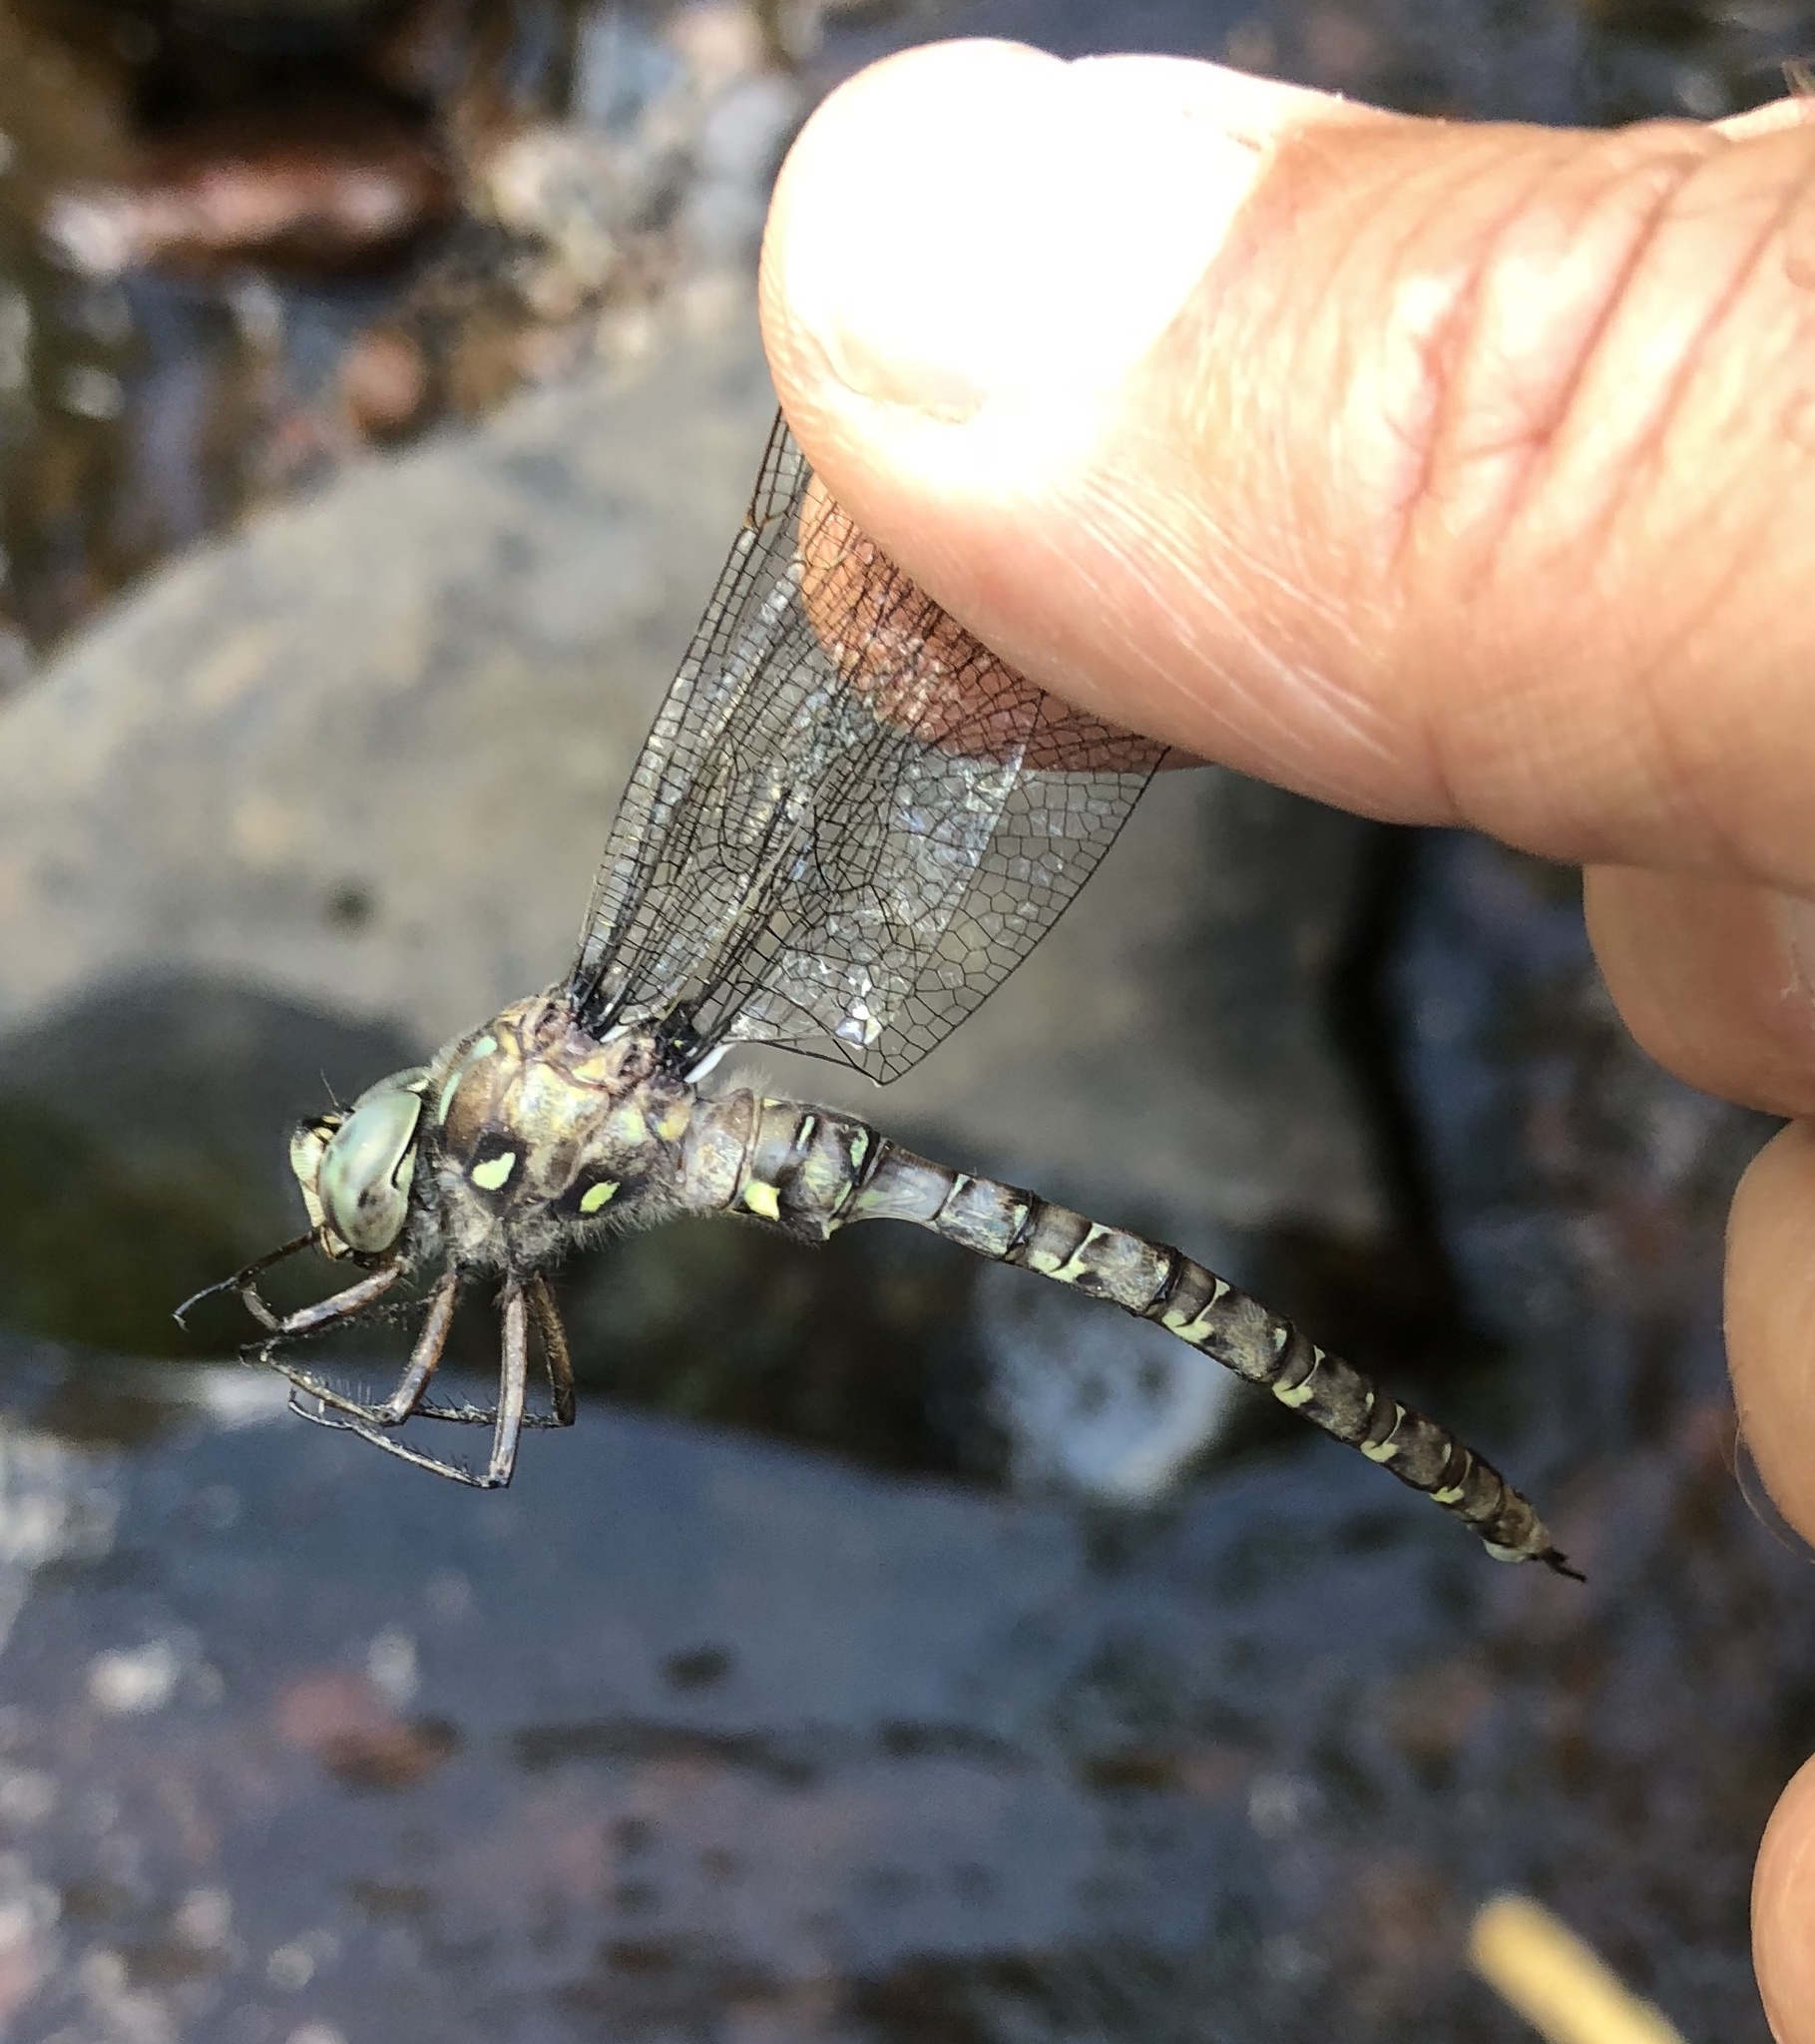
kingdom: Animalia
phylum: Arthropoda
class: Insecta
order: Odonata
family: Aeshnidae
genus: Boyeria
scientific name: Boyeria grafiana
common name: Ocellated darner
